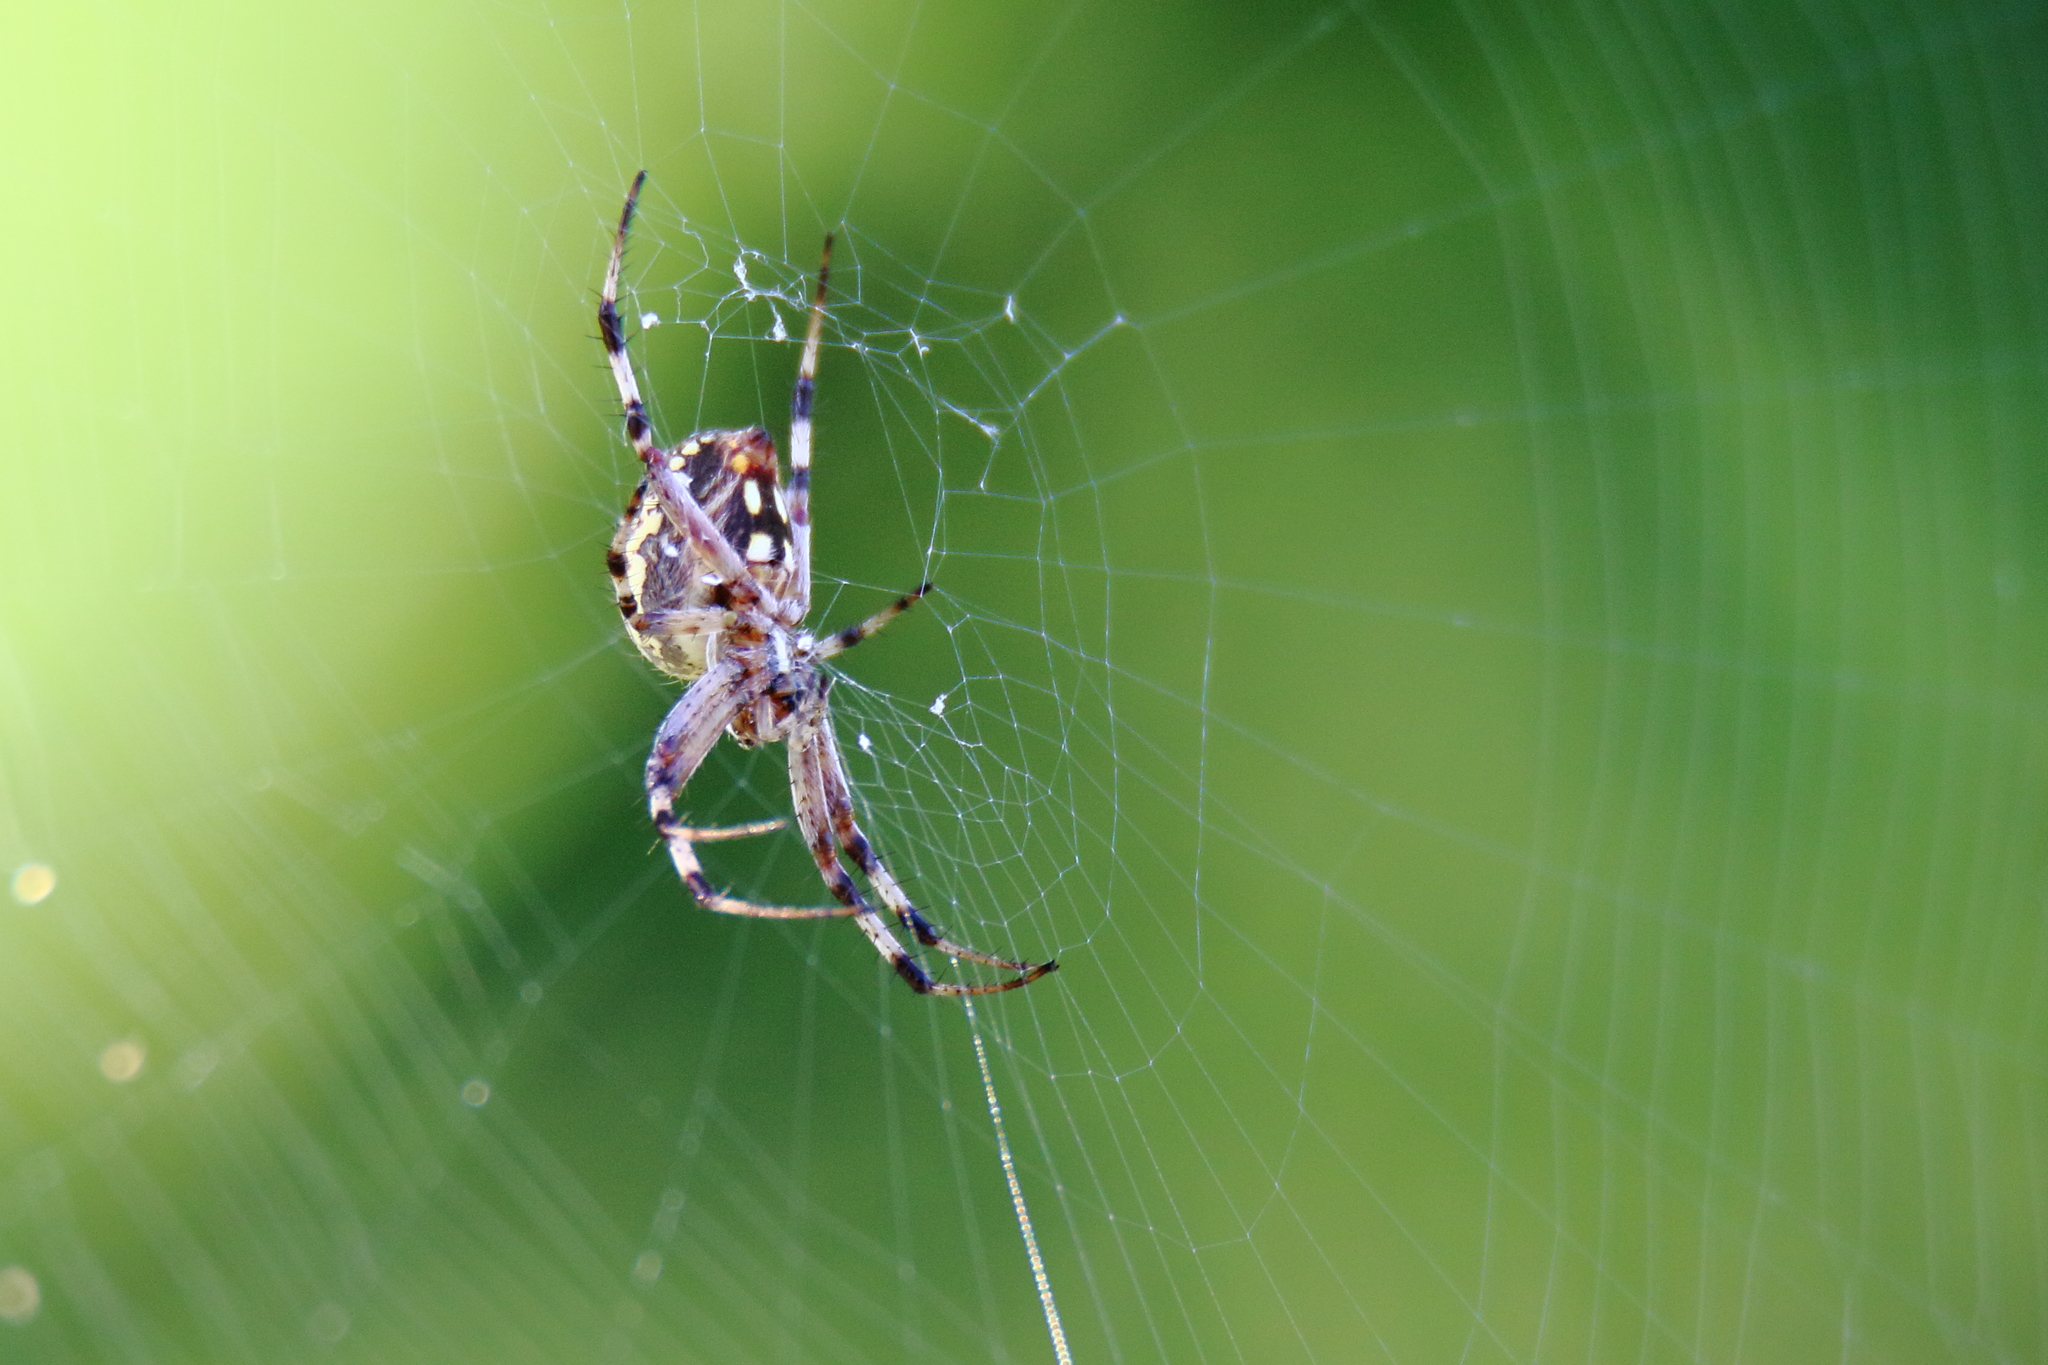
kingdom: Animalia
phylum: Arthropoda
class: Arachnida
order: Araneae
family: Araneidae
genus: Neoscona
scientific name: Neoscona oaxacensis
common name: Orb weavers
